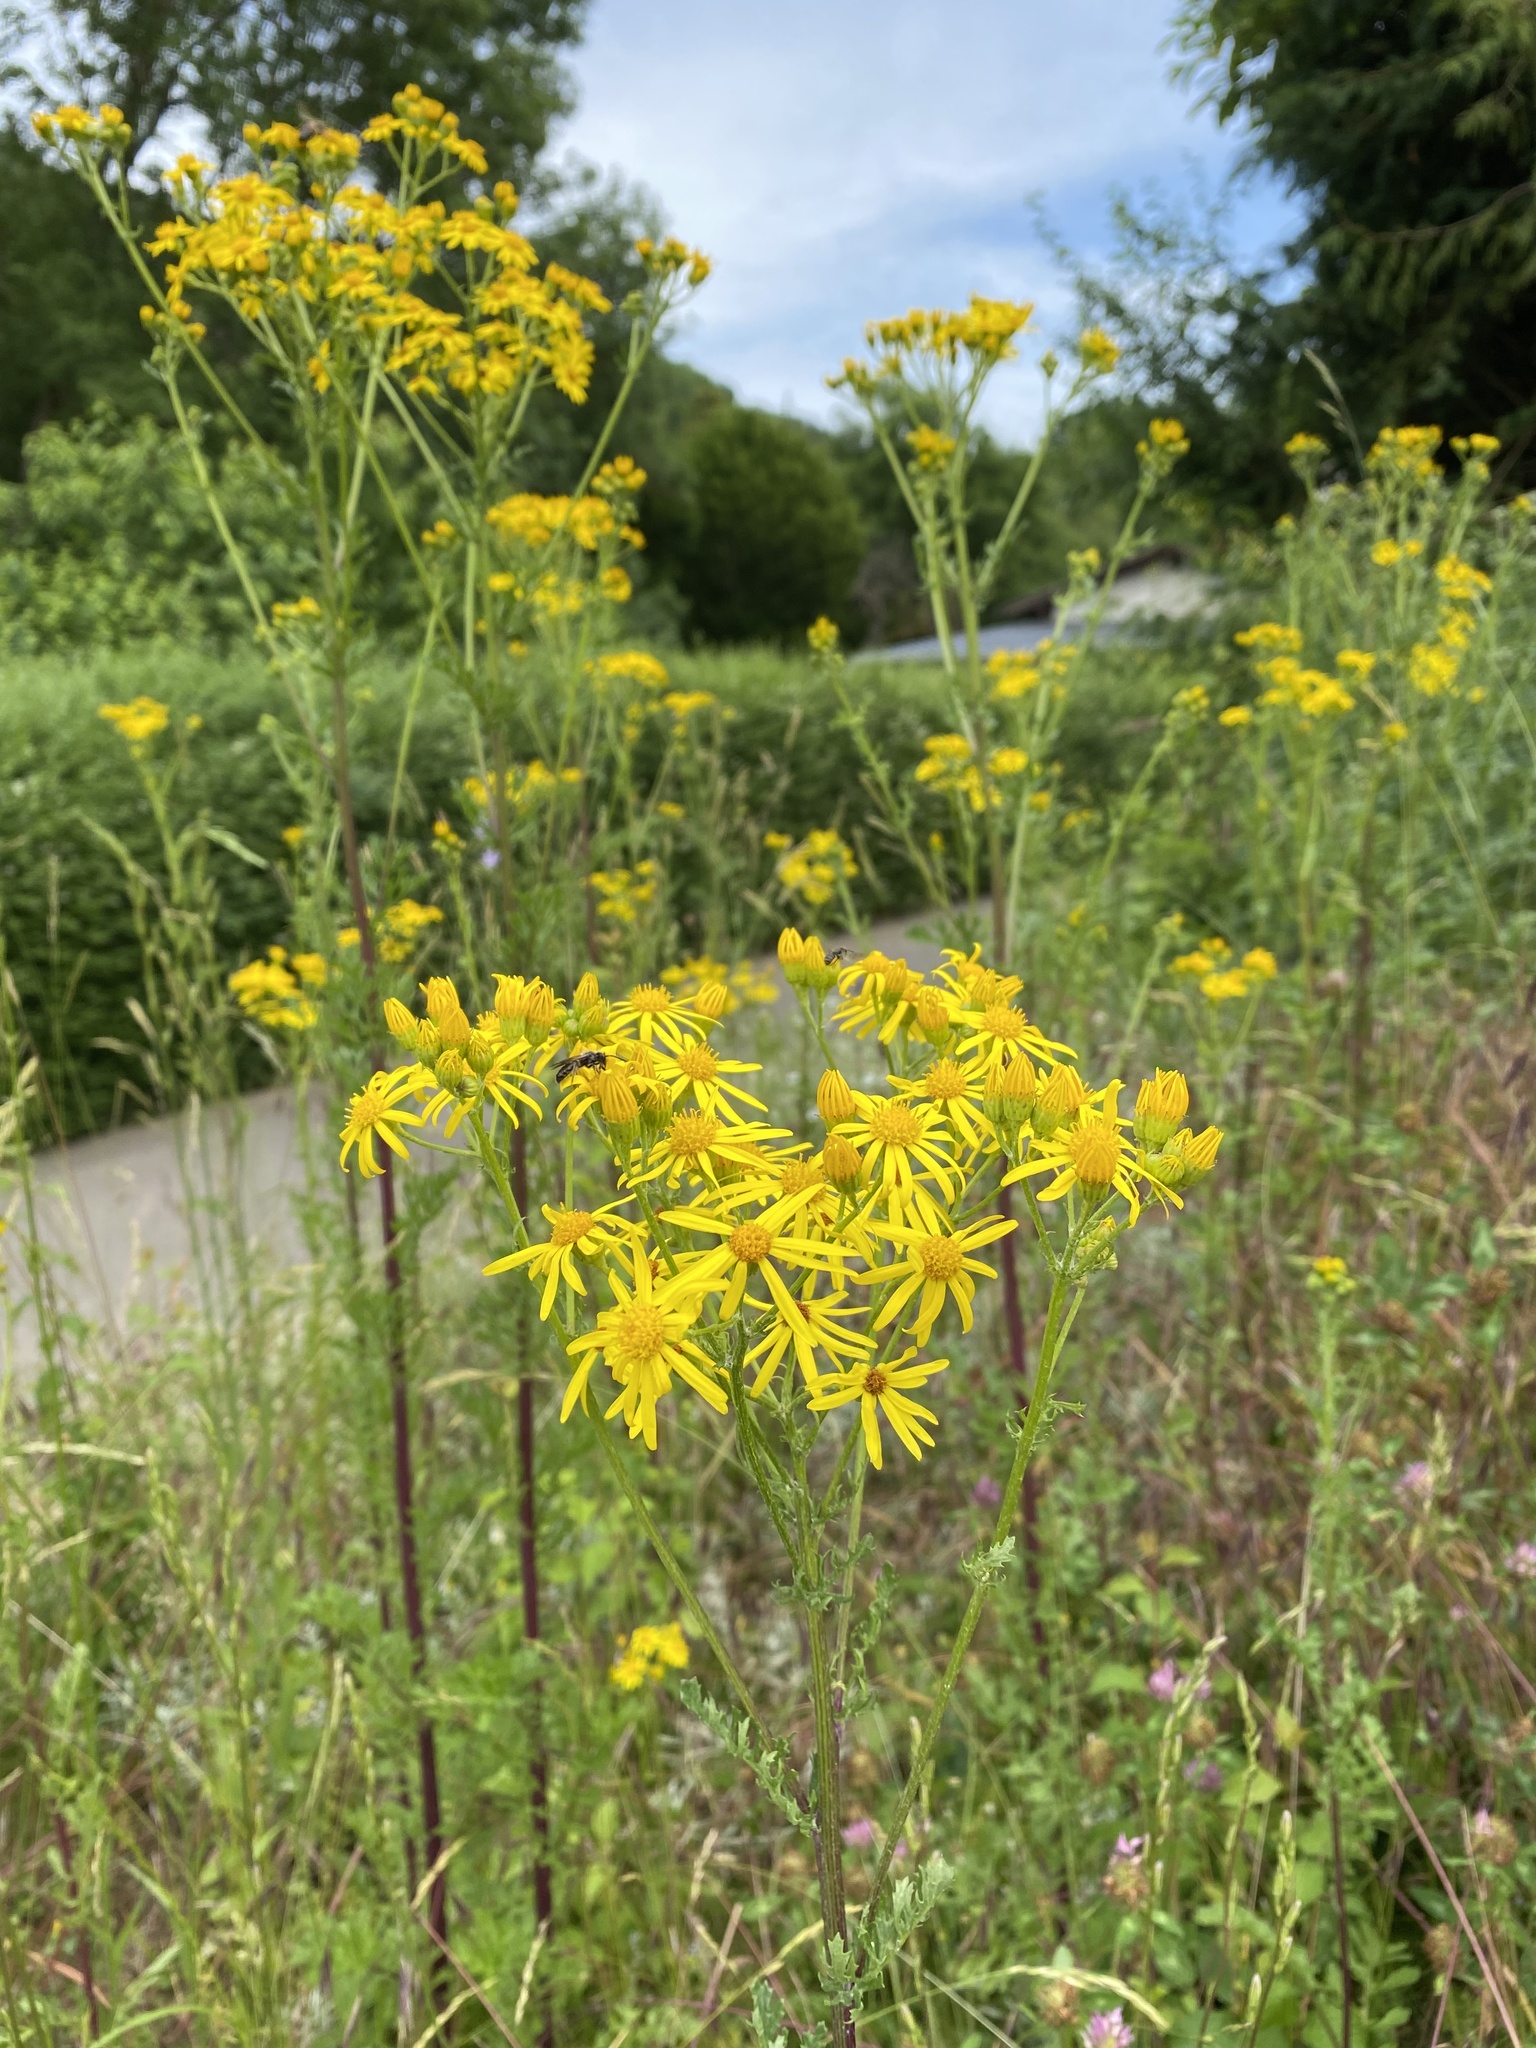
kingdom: Plantae
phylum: Tracheophyta
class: Magnoliopsida
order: Asterales
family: Asteraceae
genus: Jacobaea
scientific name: Jacobaea vulgaris
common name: Stinking willie
